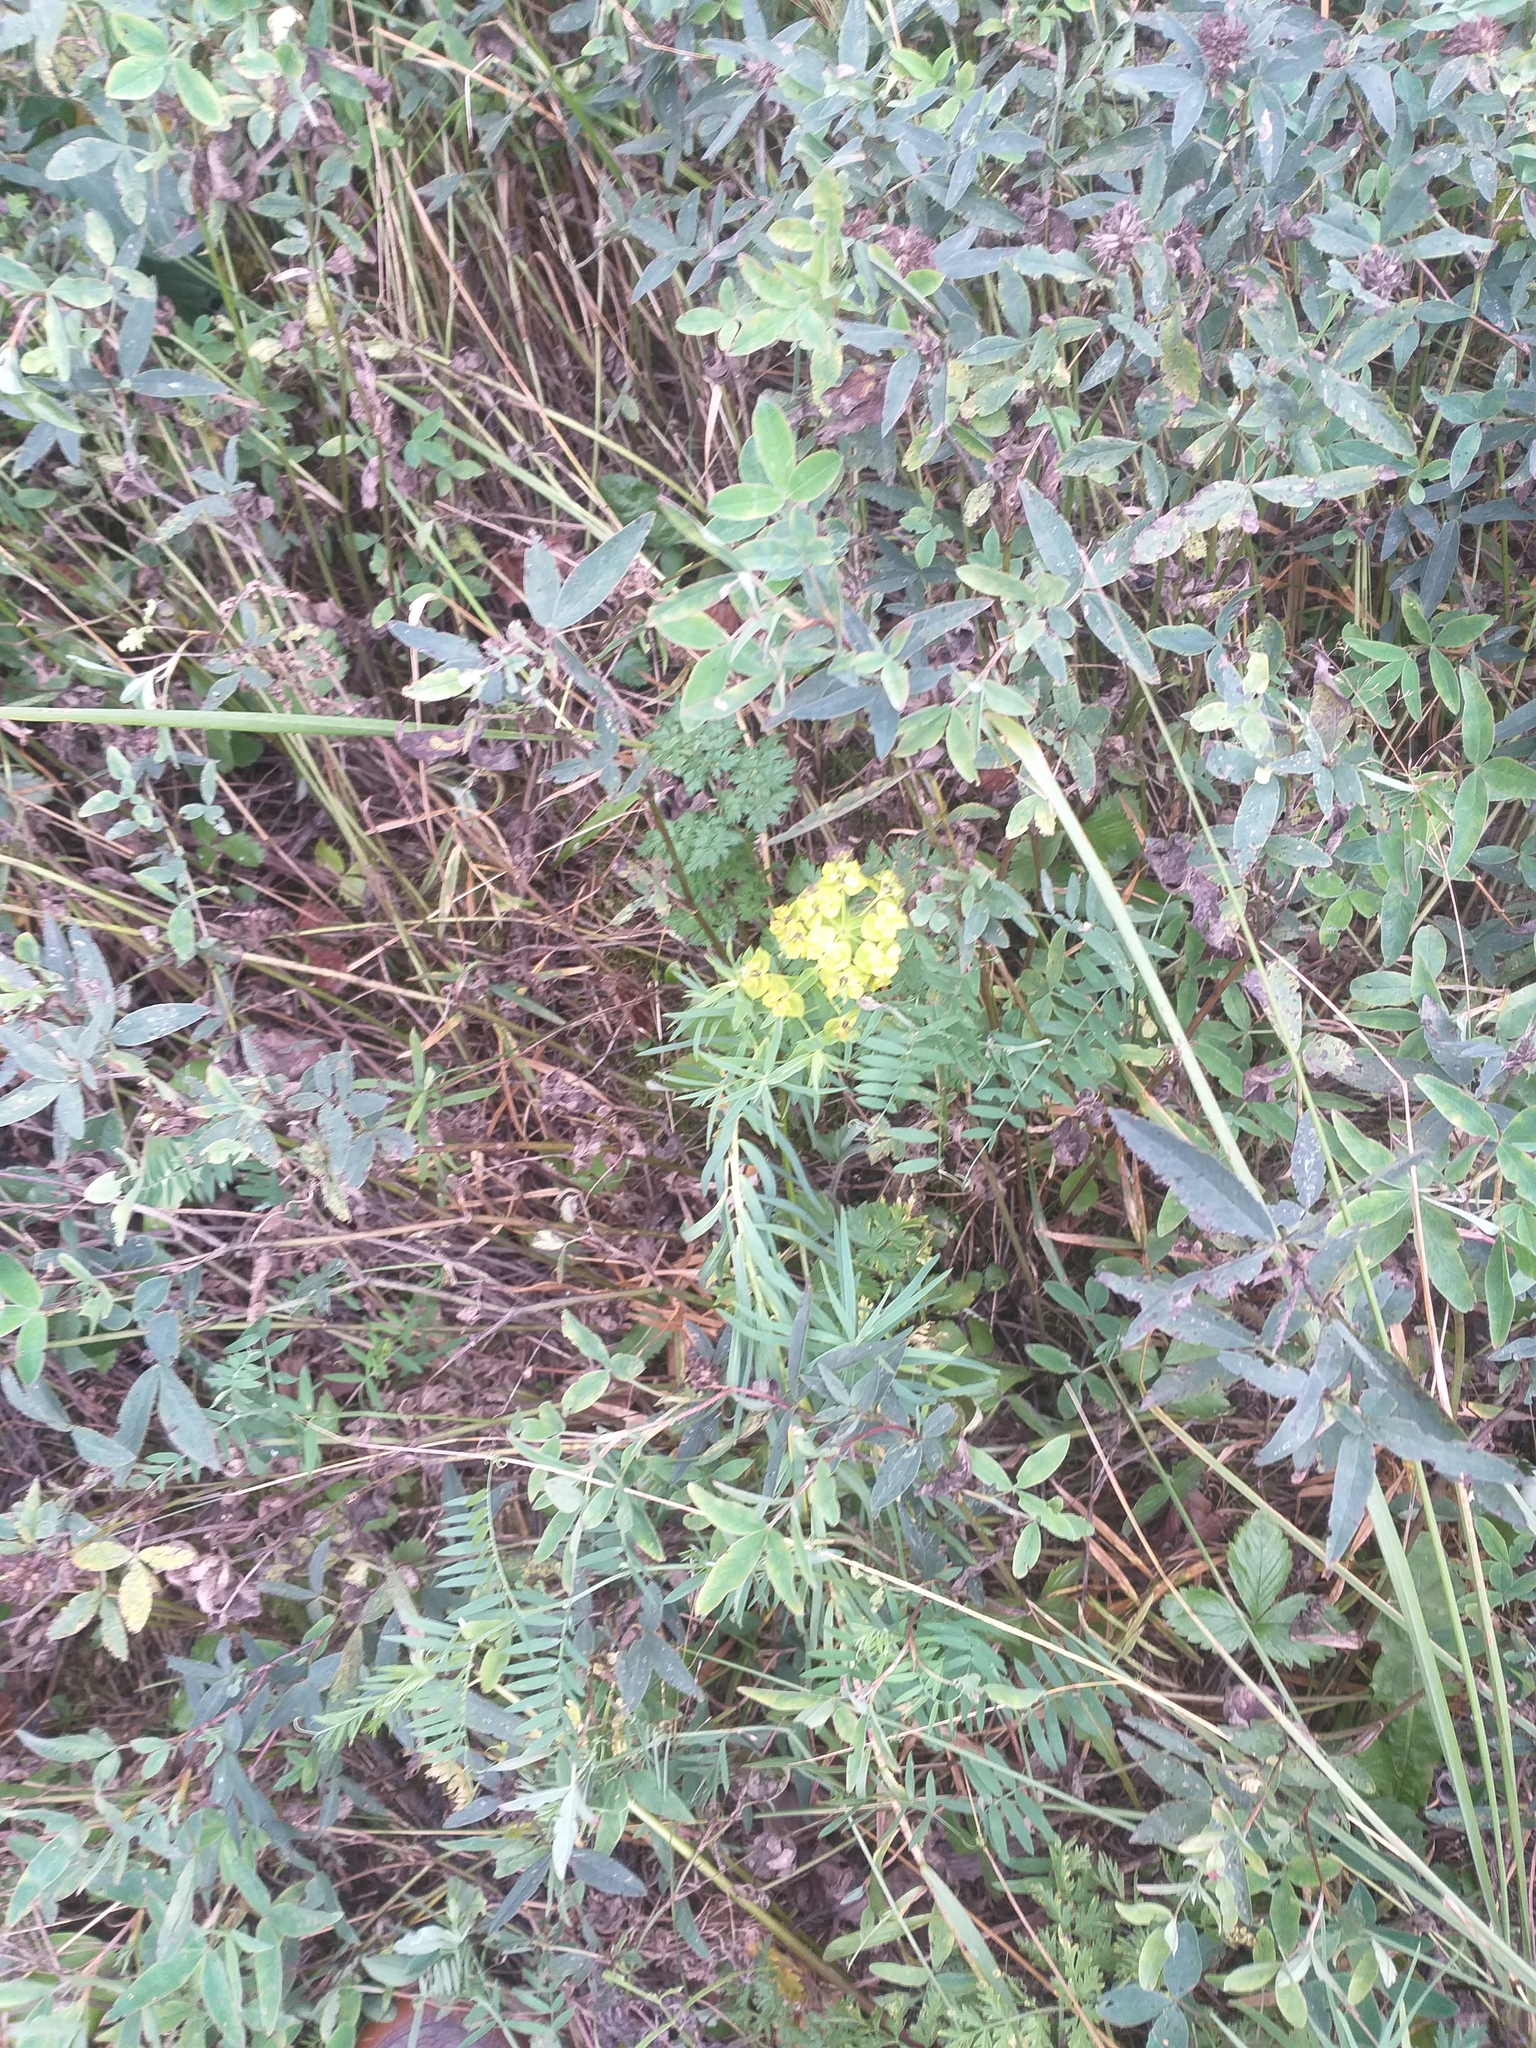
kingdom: Plantae
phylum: Tracheophyta
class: Magnoliopsida
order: Malpighiales
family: Euphorbiaceae
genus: Euphorbia
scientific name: Euphorbia virgata
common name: Leafy spurge
